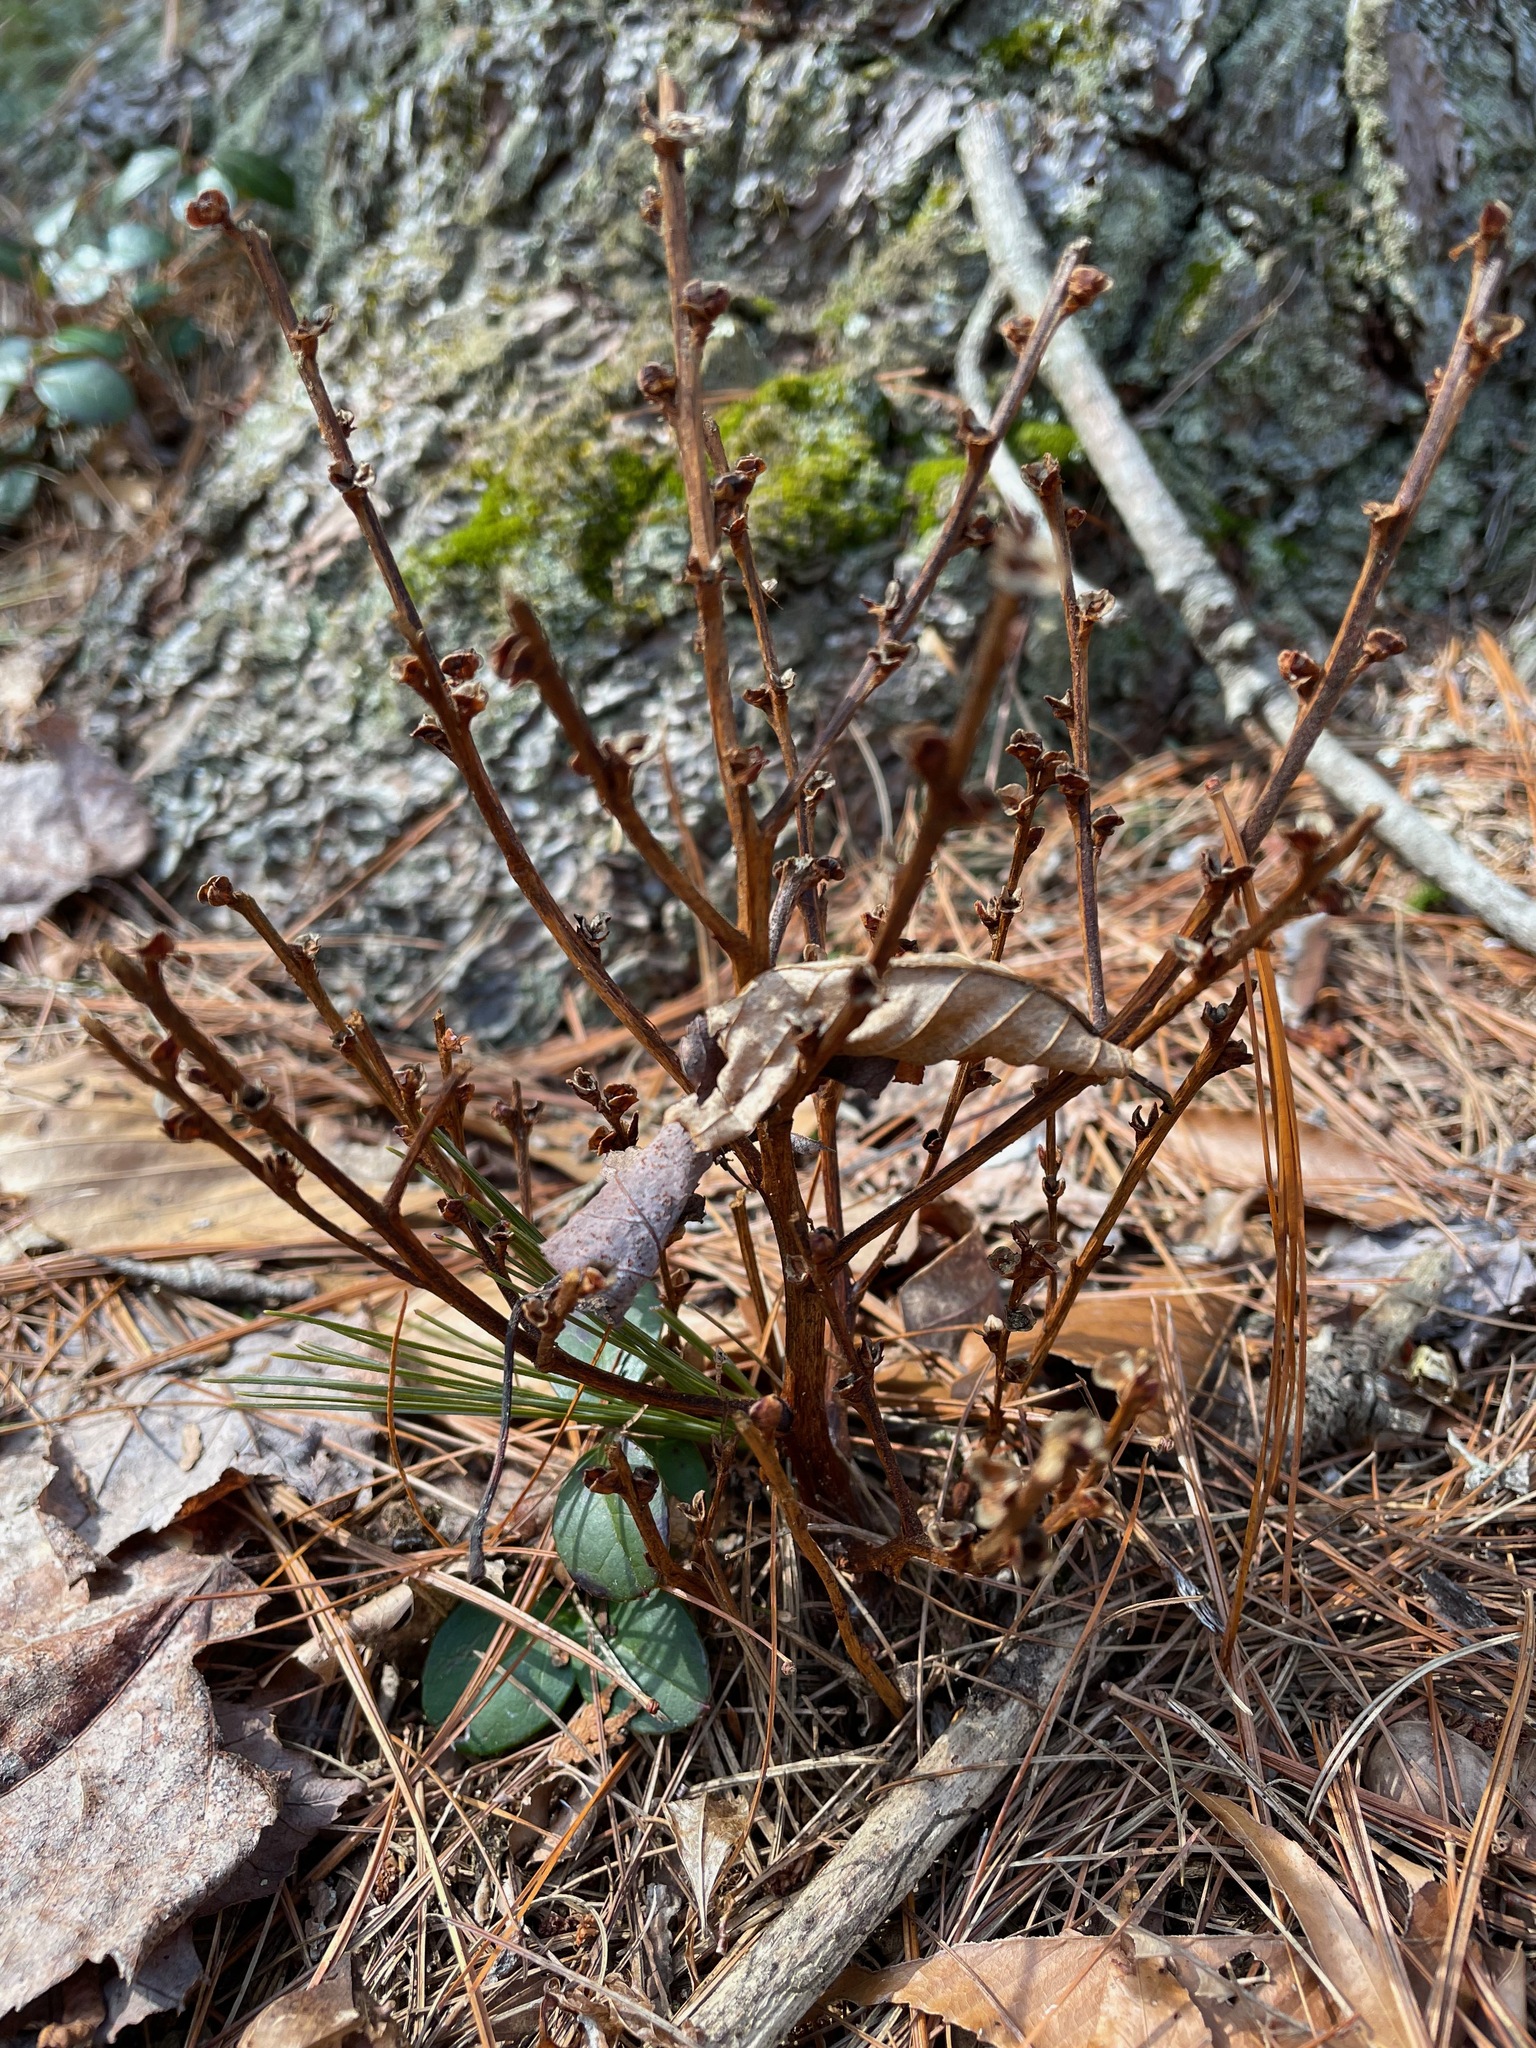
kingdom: Plantae
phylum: Tracheophyta
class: Magnoliopsida
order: Lamiales
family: Orobanchaceae
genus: Epifagus
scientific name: Epifagus virginiana
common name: Beechdrops
